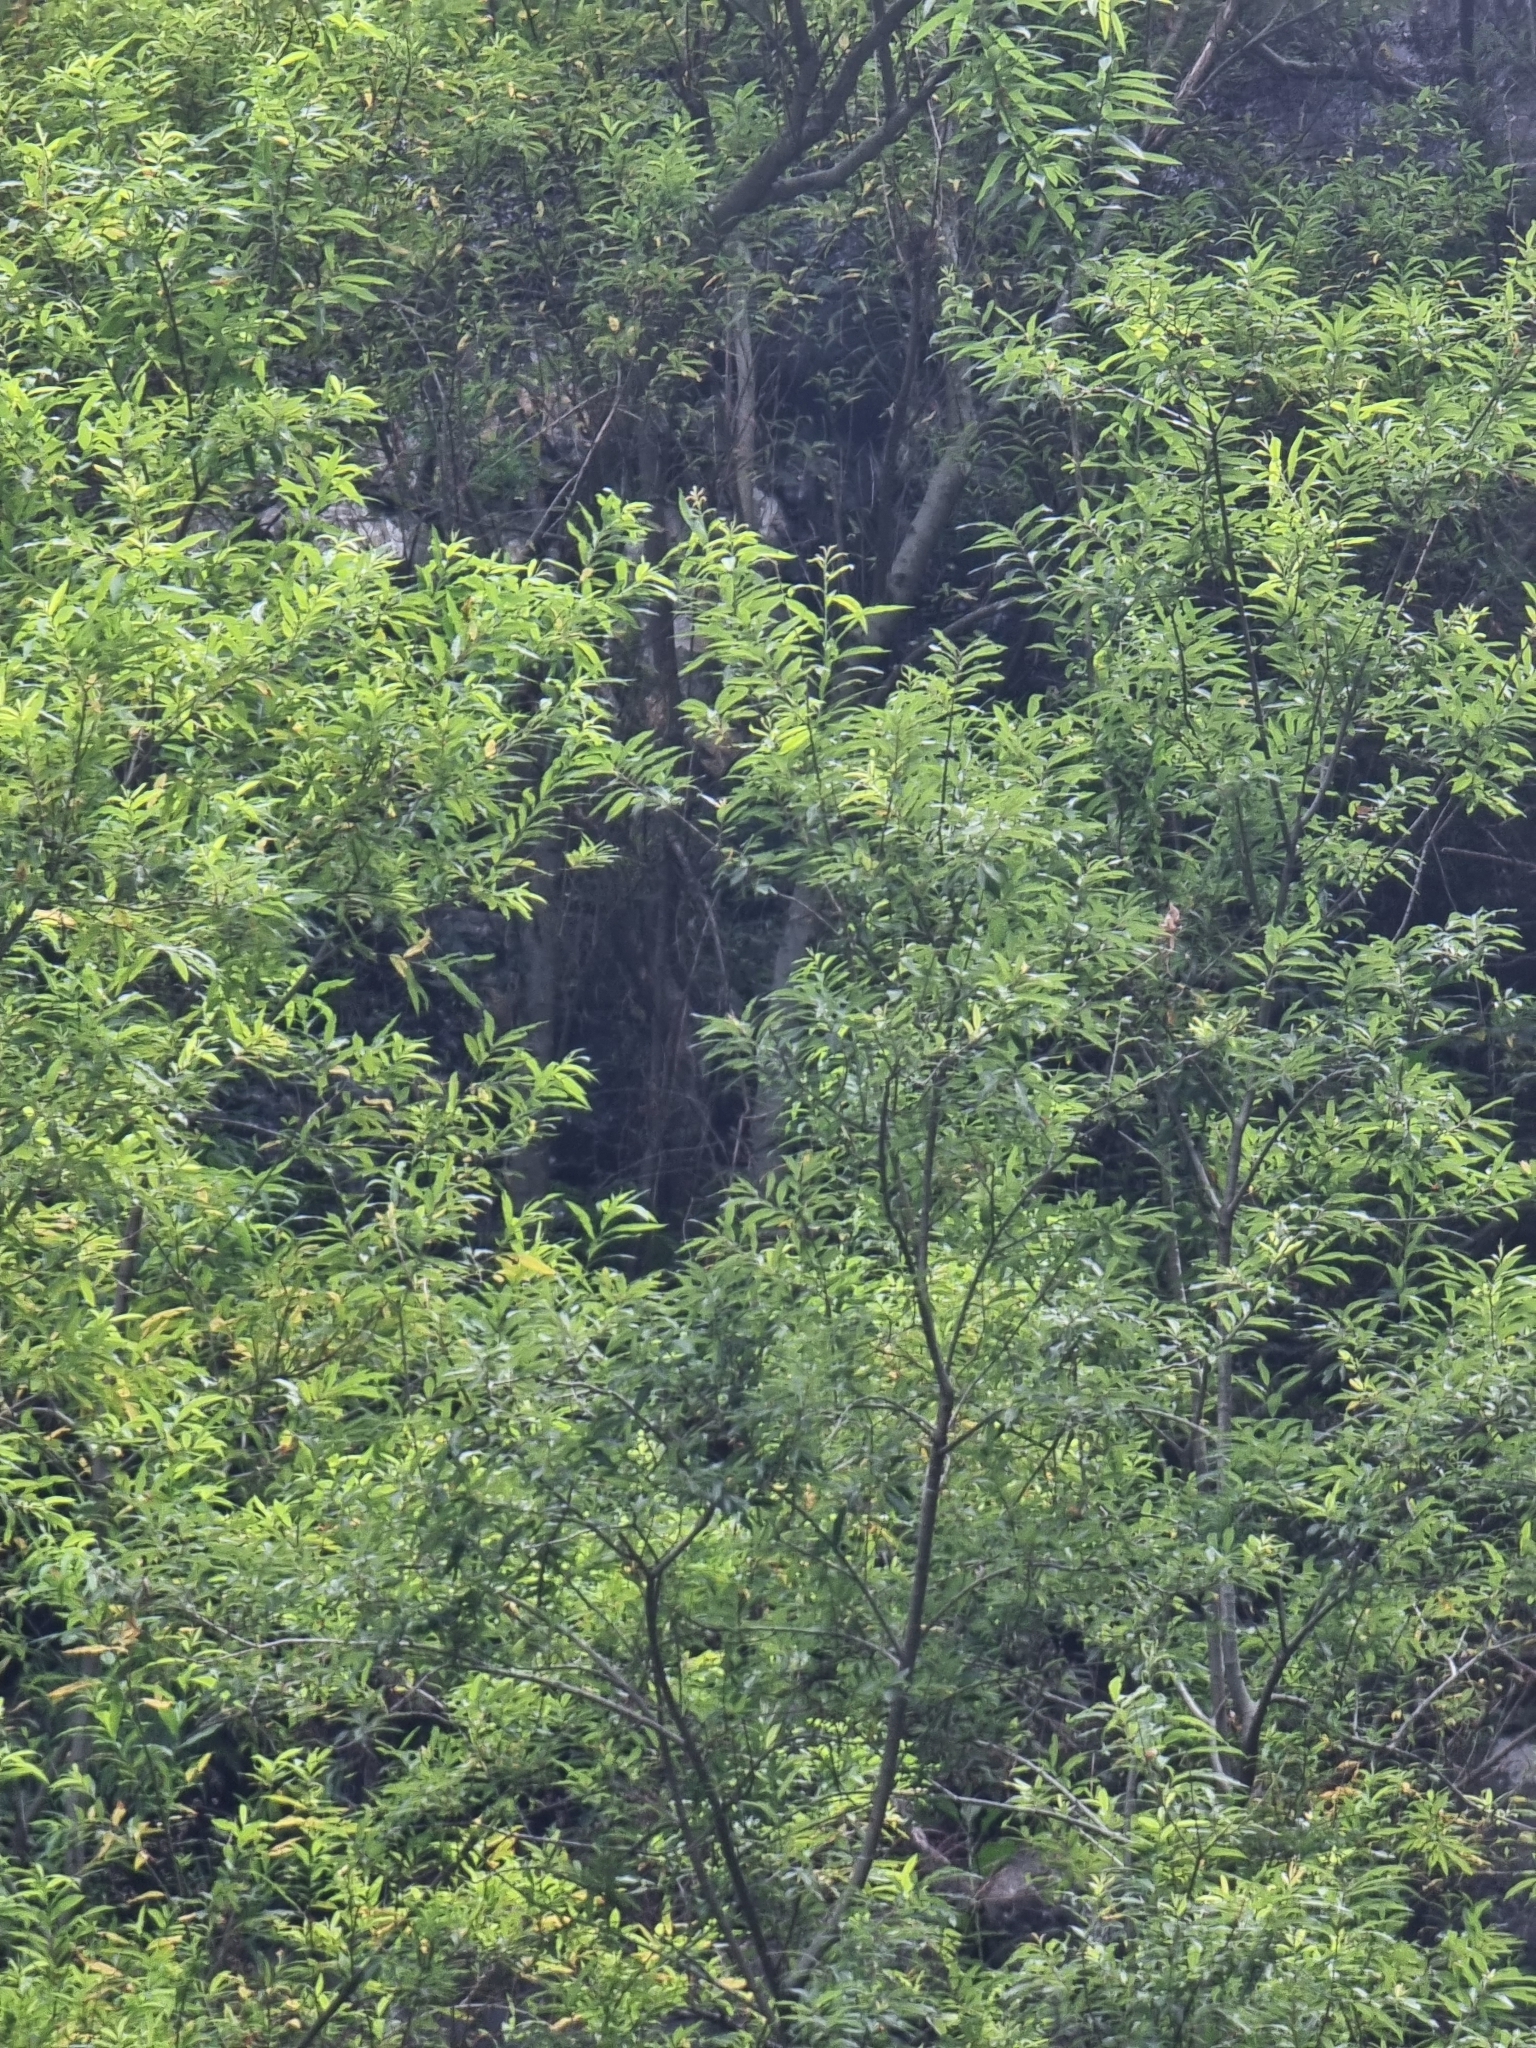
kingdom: Plantae
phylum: Tracheophyta
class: Magnoliopsida
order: Malpighiales
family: Salicaceae
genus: Salix
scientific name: Salix canariensis
